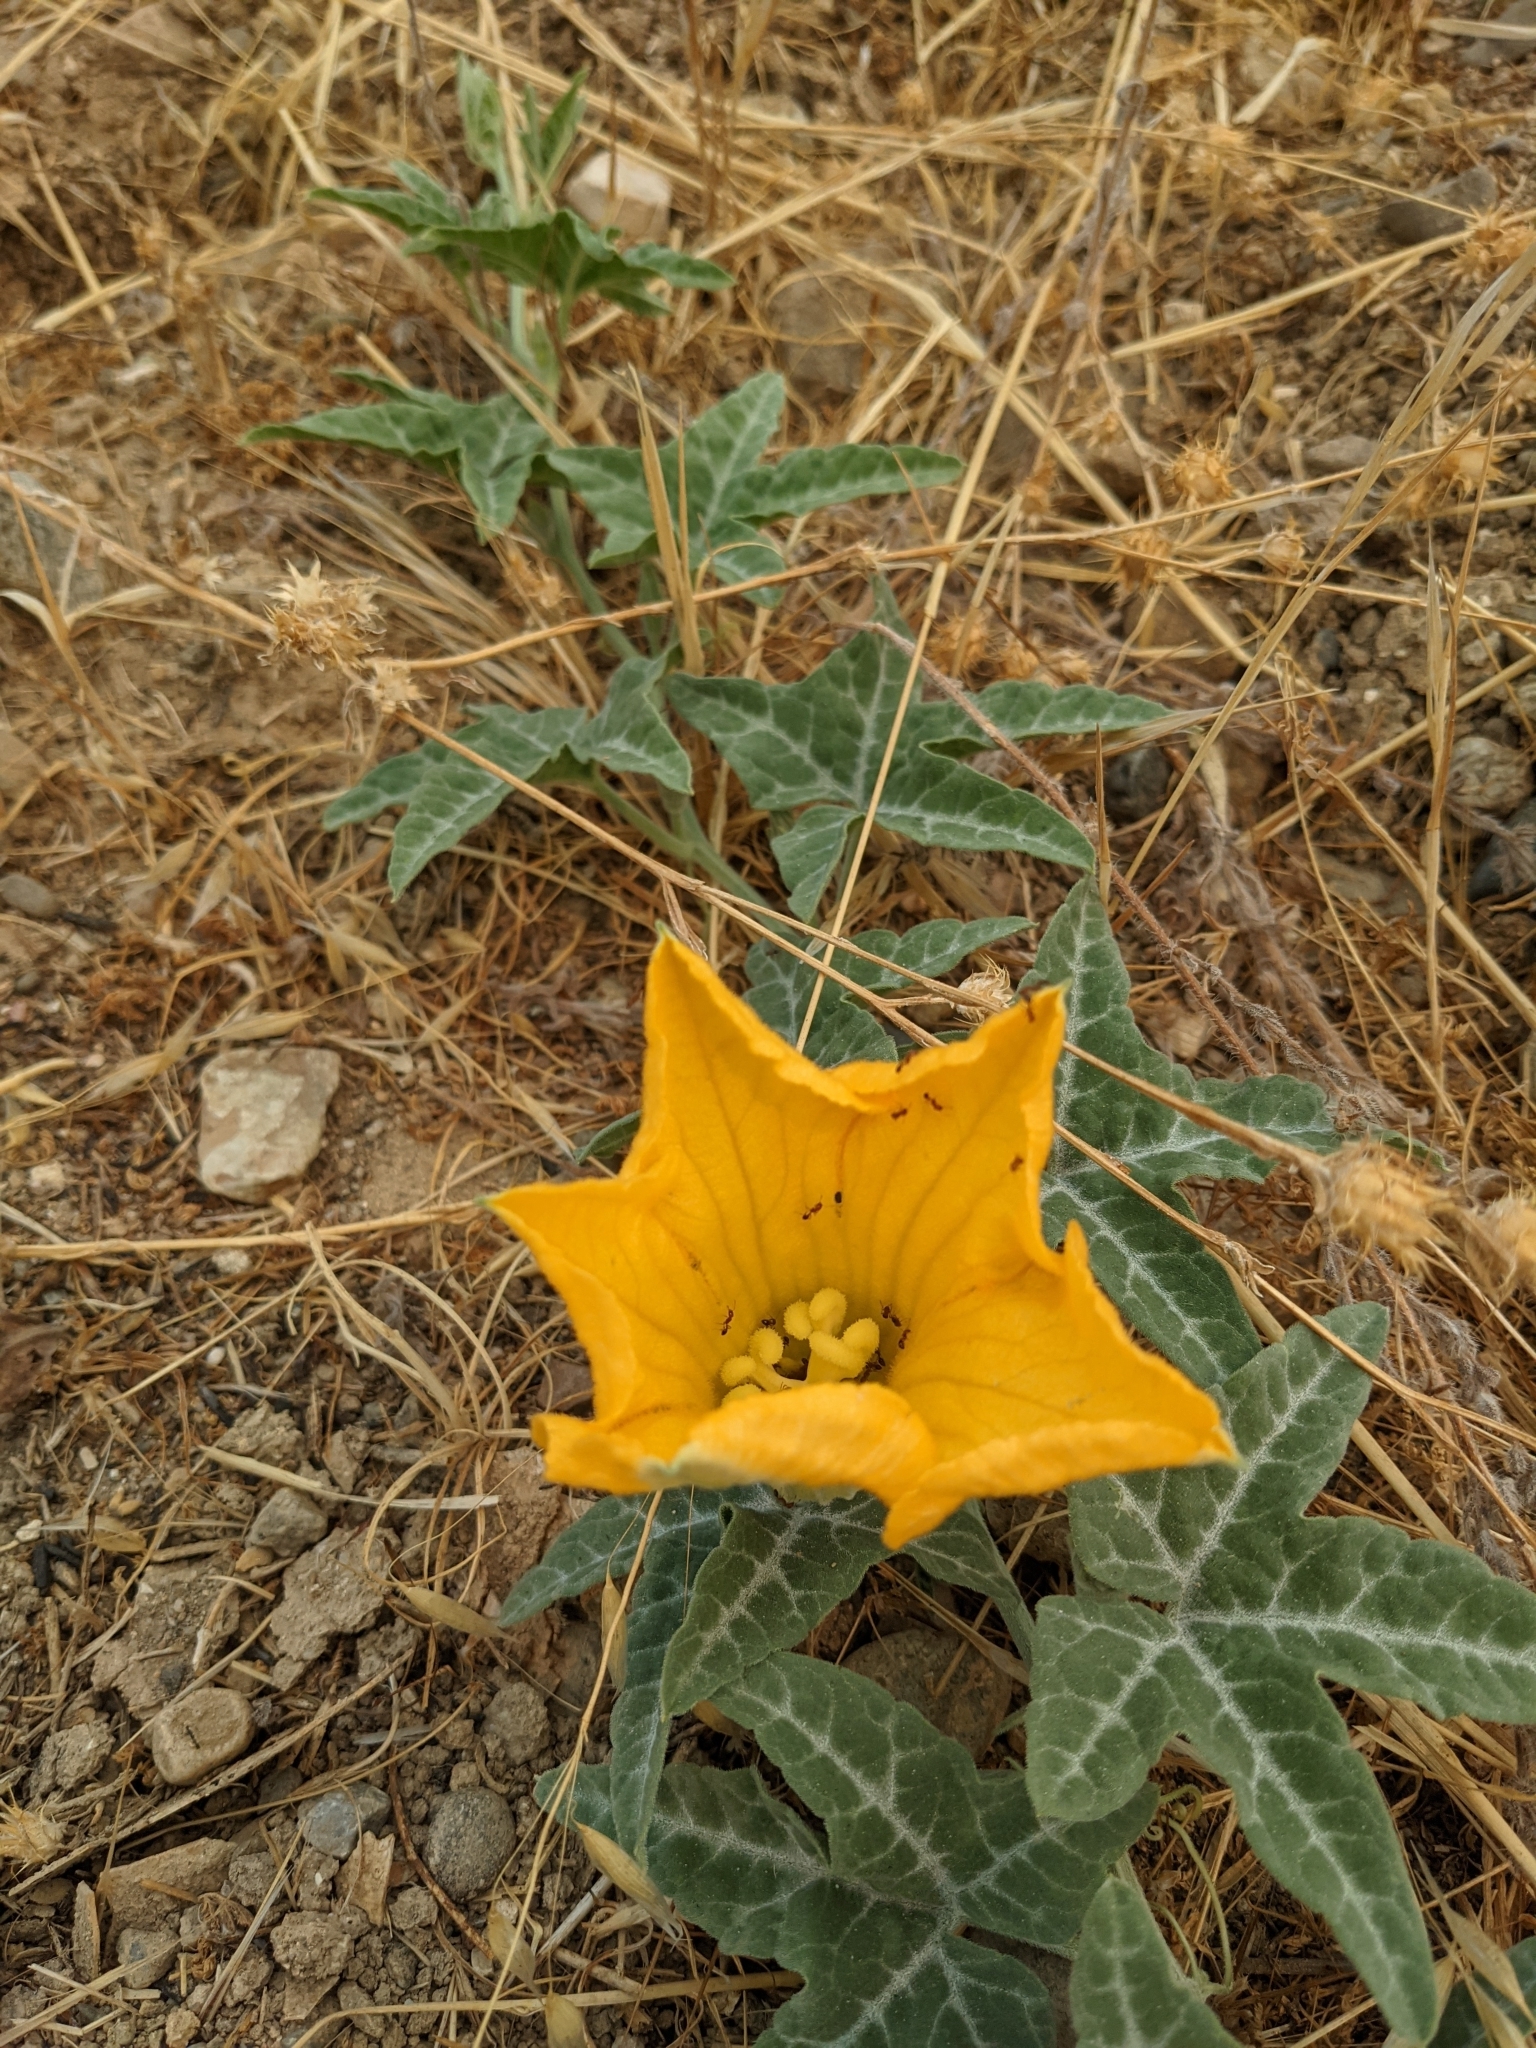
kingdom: Plantae
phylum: Tracheophyta
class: Magnoliopsida
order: Cucurbitales
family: Cucurbitaceae
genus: Cucurbita
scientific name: Cucurbita palmata
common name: Coyote-melon
